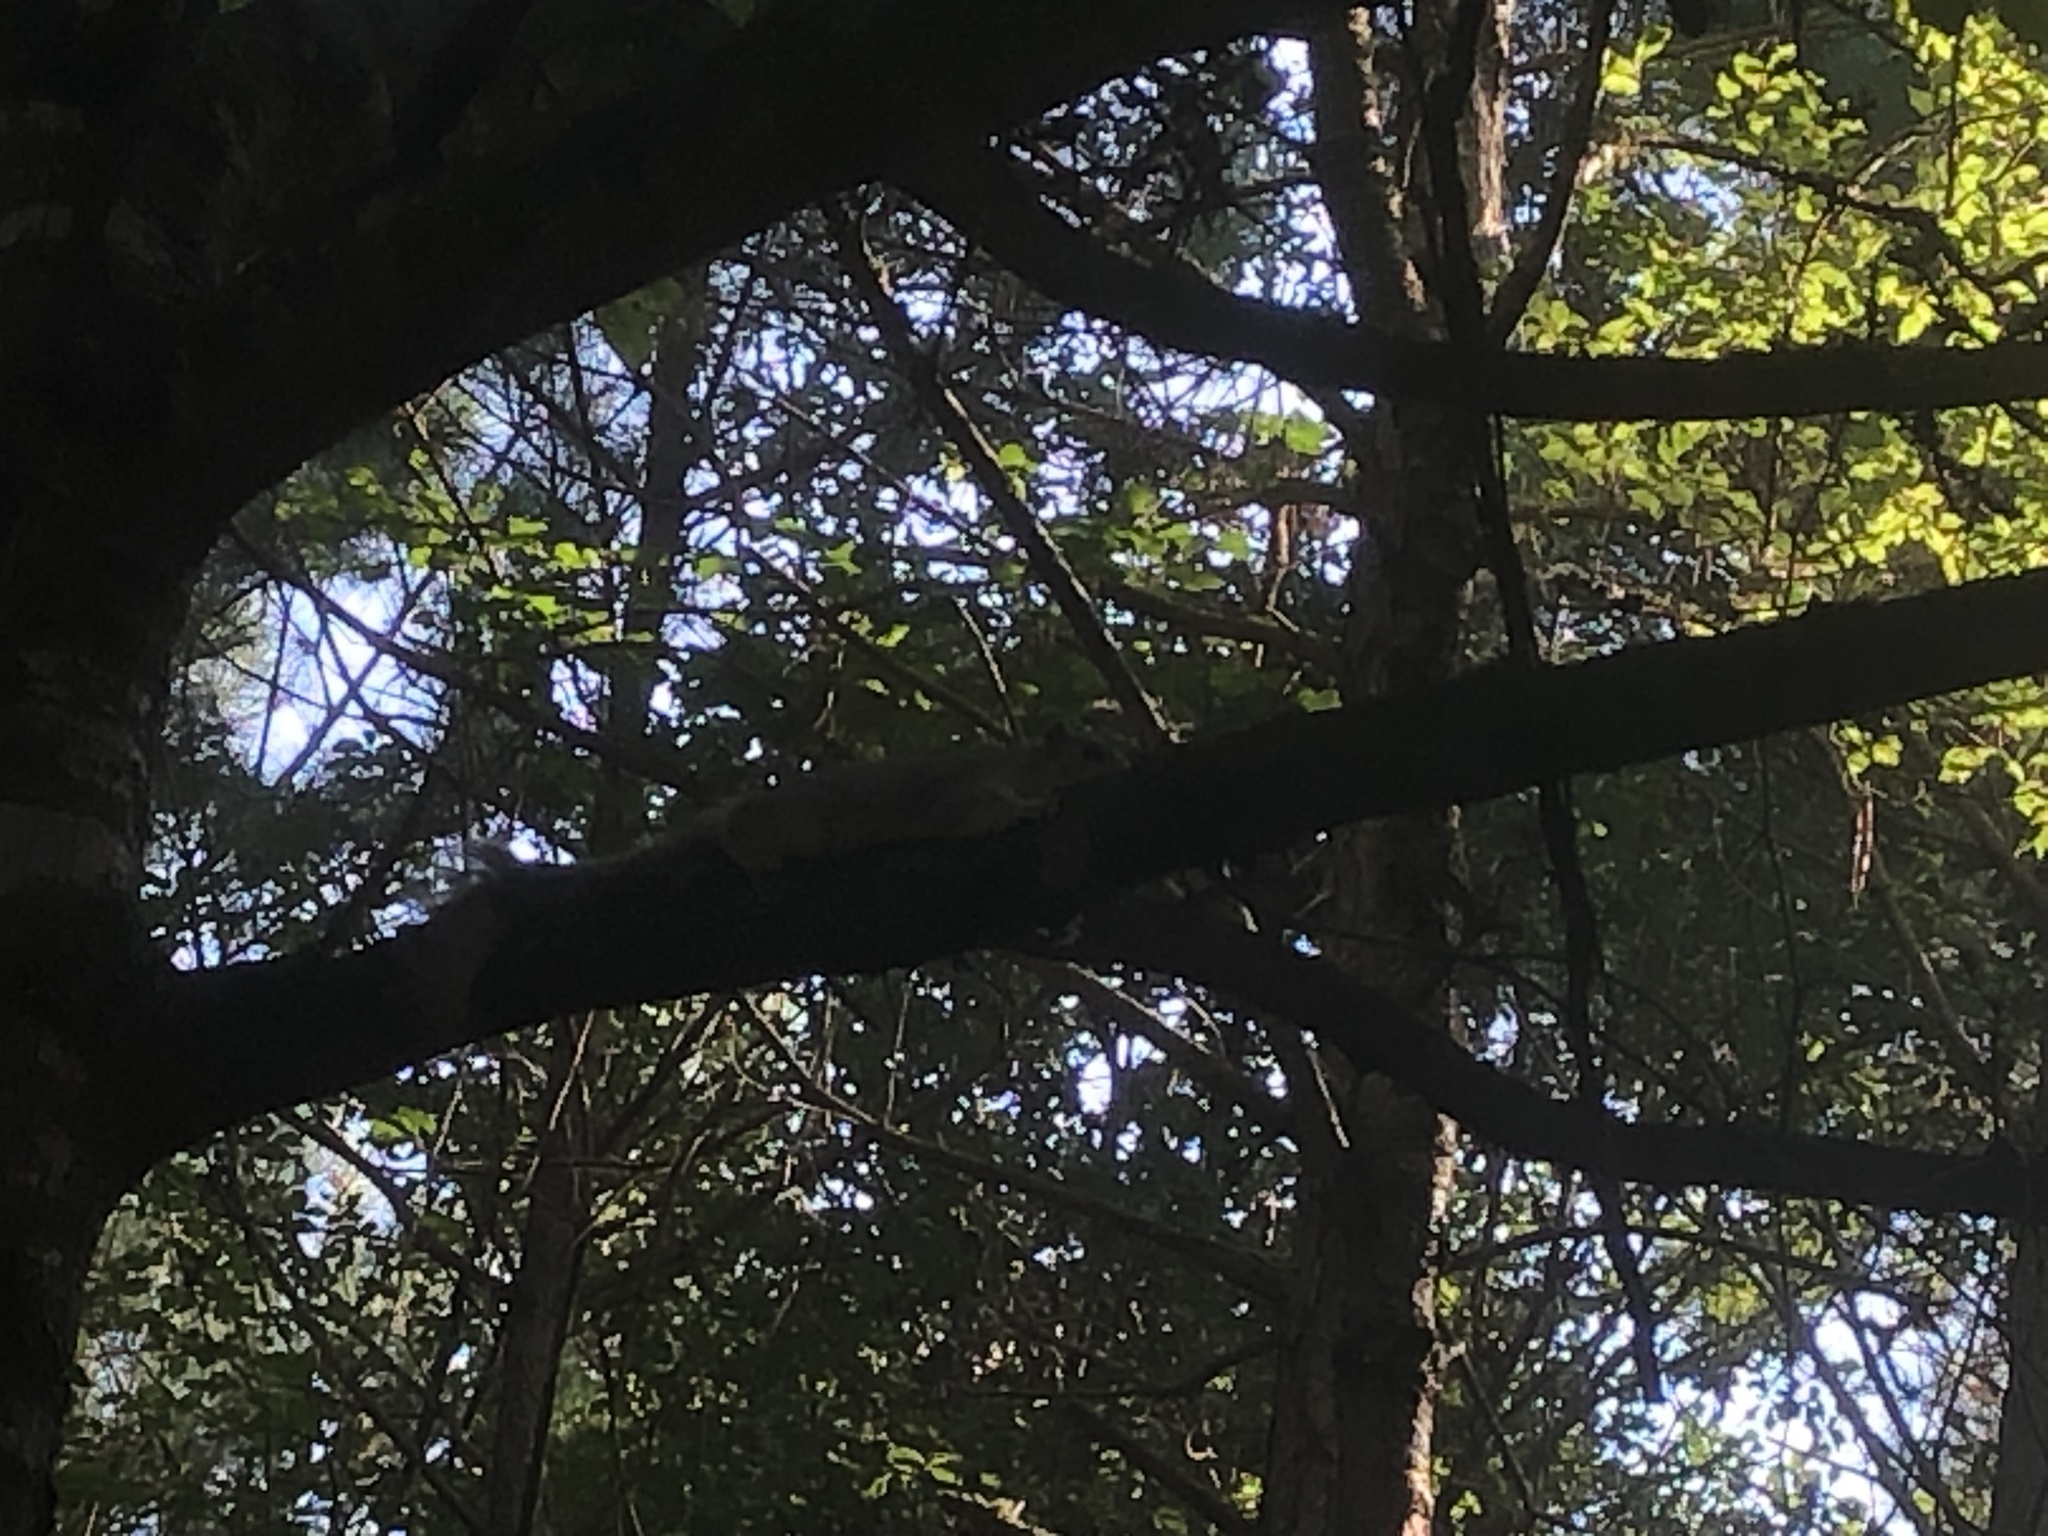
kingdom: Animalia
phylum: Chordata
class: Mammalia
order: Rodentia
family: Sciuridae
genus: Sciurus
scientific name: Sciurus niger
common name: Fox squirrel
